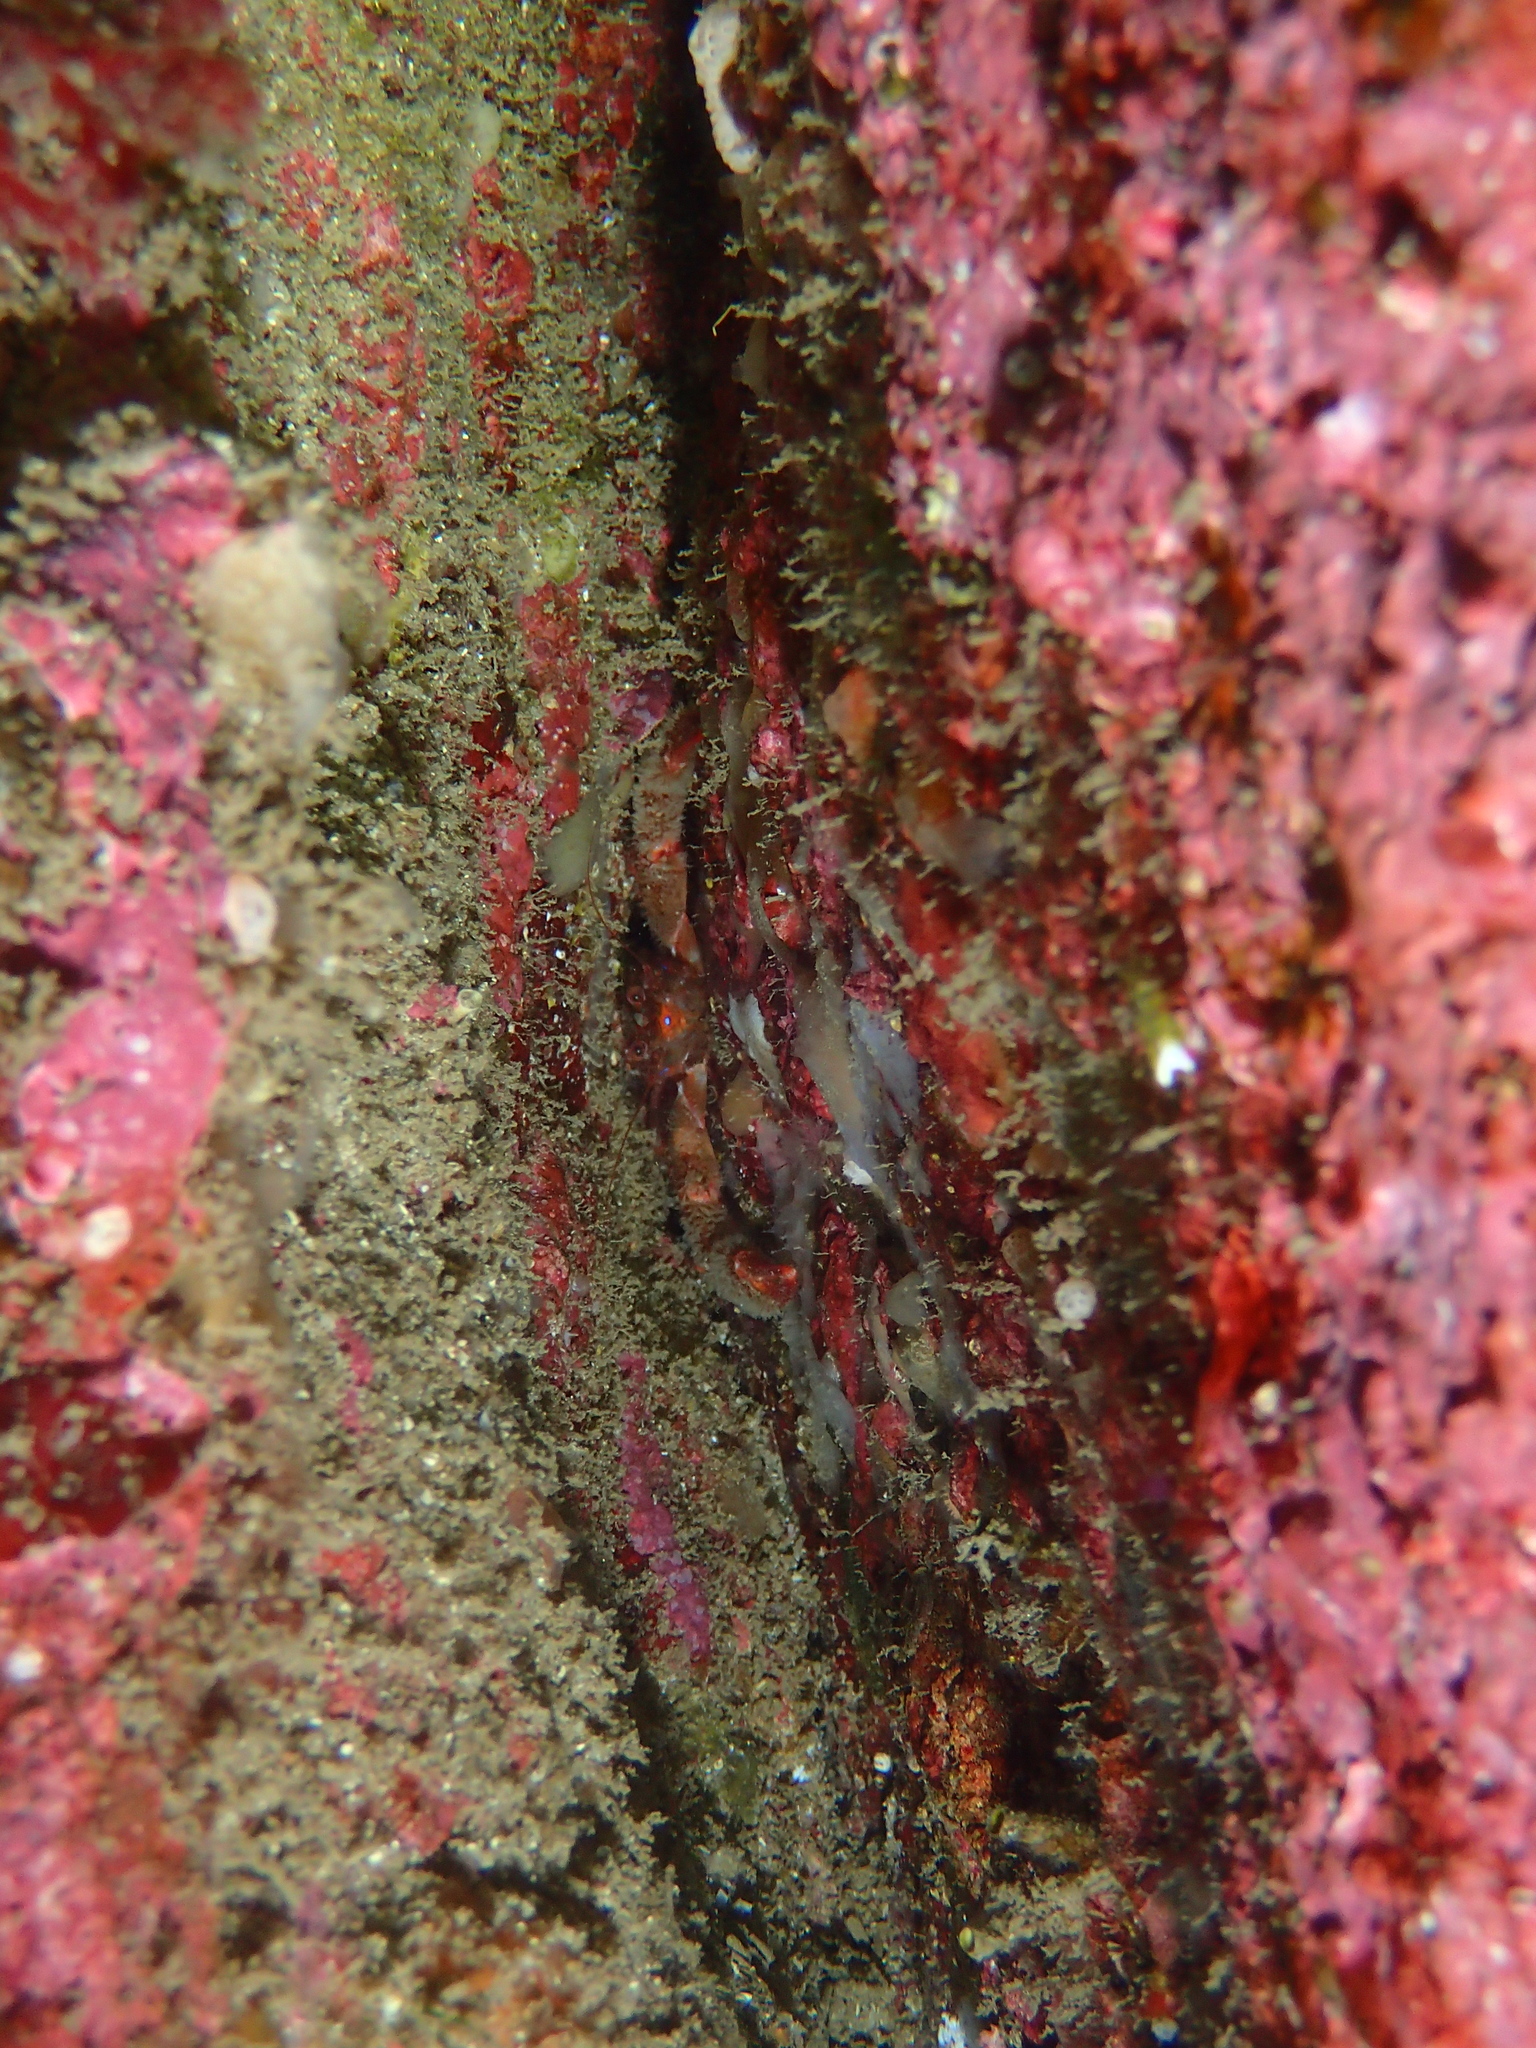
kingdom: Animalia
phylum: Arthropoda
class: Malacostraca
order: Decapoda
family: Galatheidae
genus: Galathea
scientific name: Galathea strigosa
